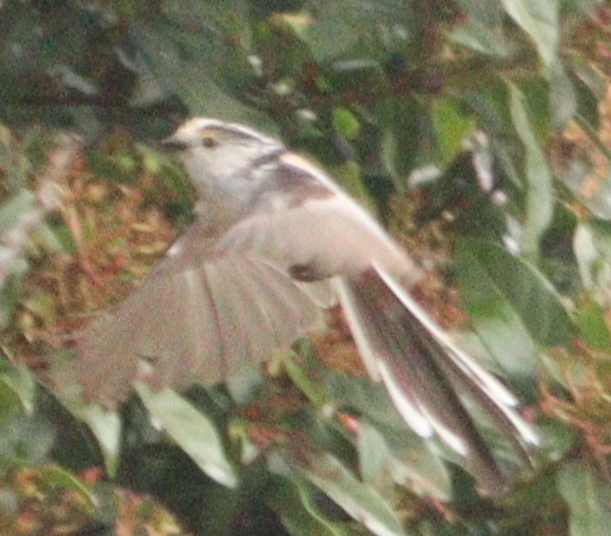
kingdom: Animalia
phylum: Chordata
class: Aves
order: Passeriformes
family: Aegithalidae
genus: Aegithalos
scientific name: Aegithalos caudatus
